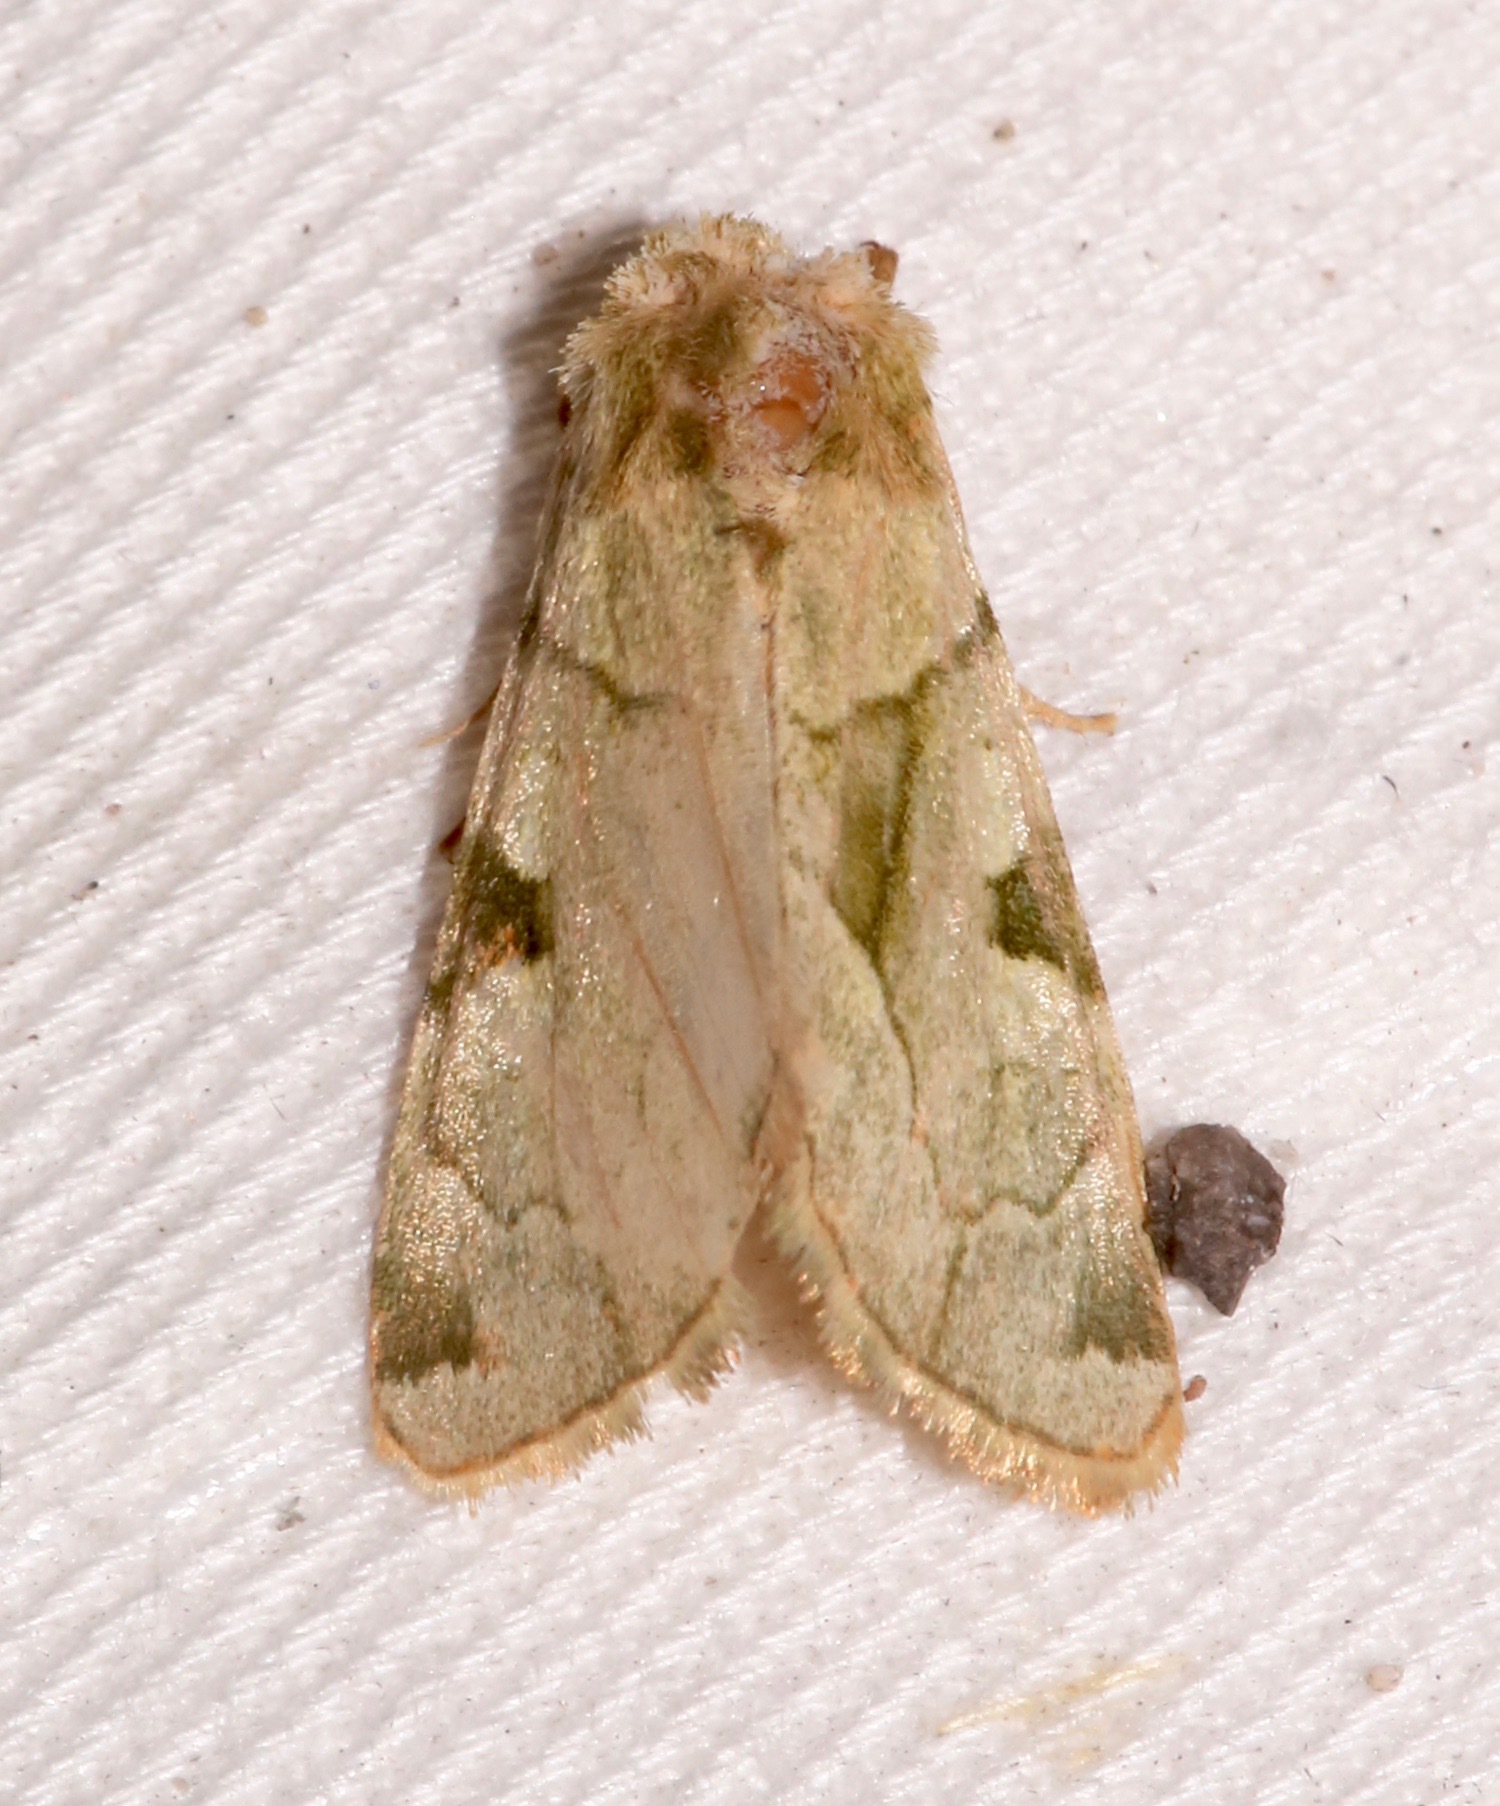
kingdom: Animalia
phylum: Arthropoda
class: Insecta
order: Lepidoptera
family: Noctuidae
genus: Oslaria
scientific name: Oslaria viridifera
